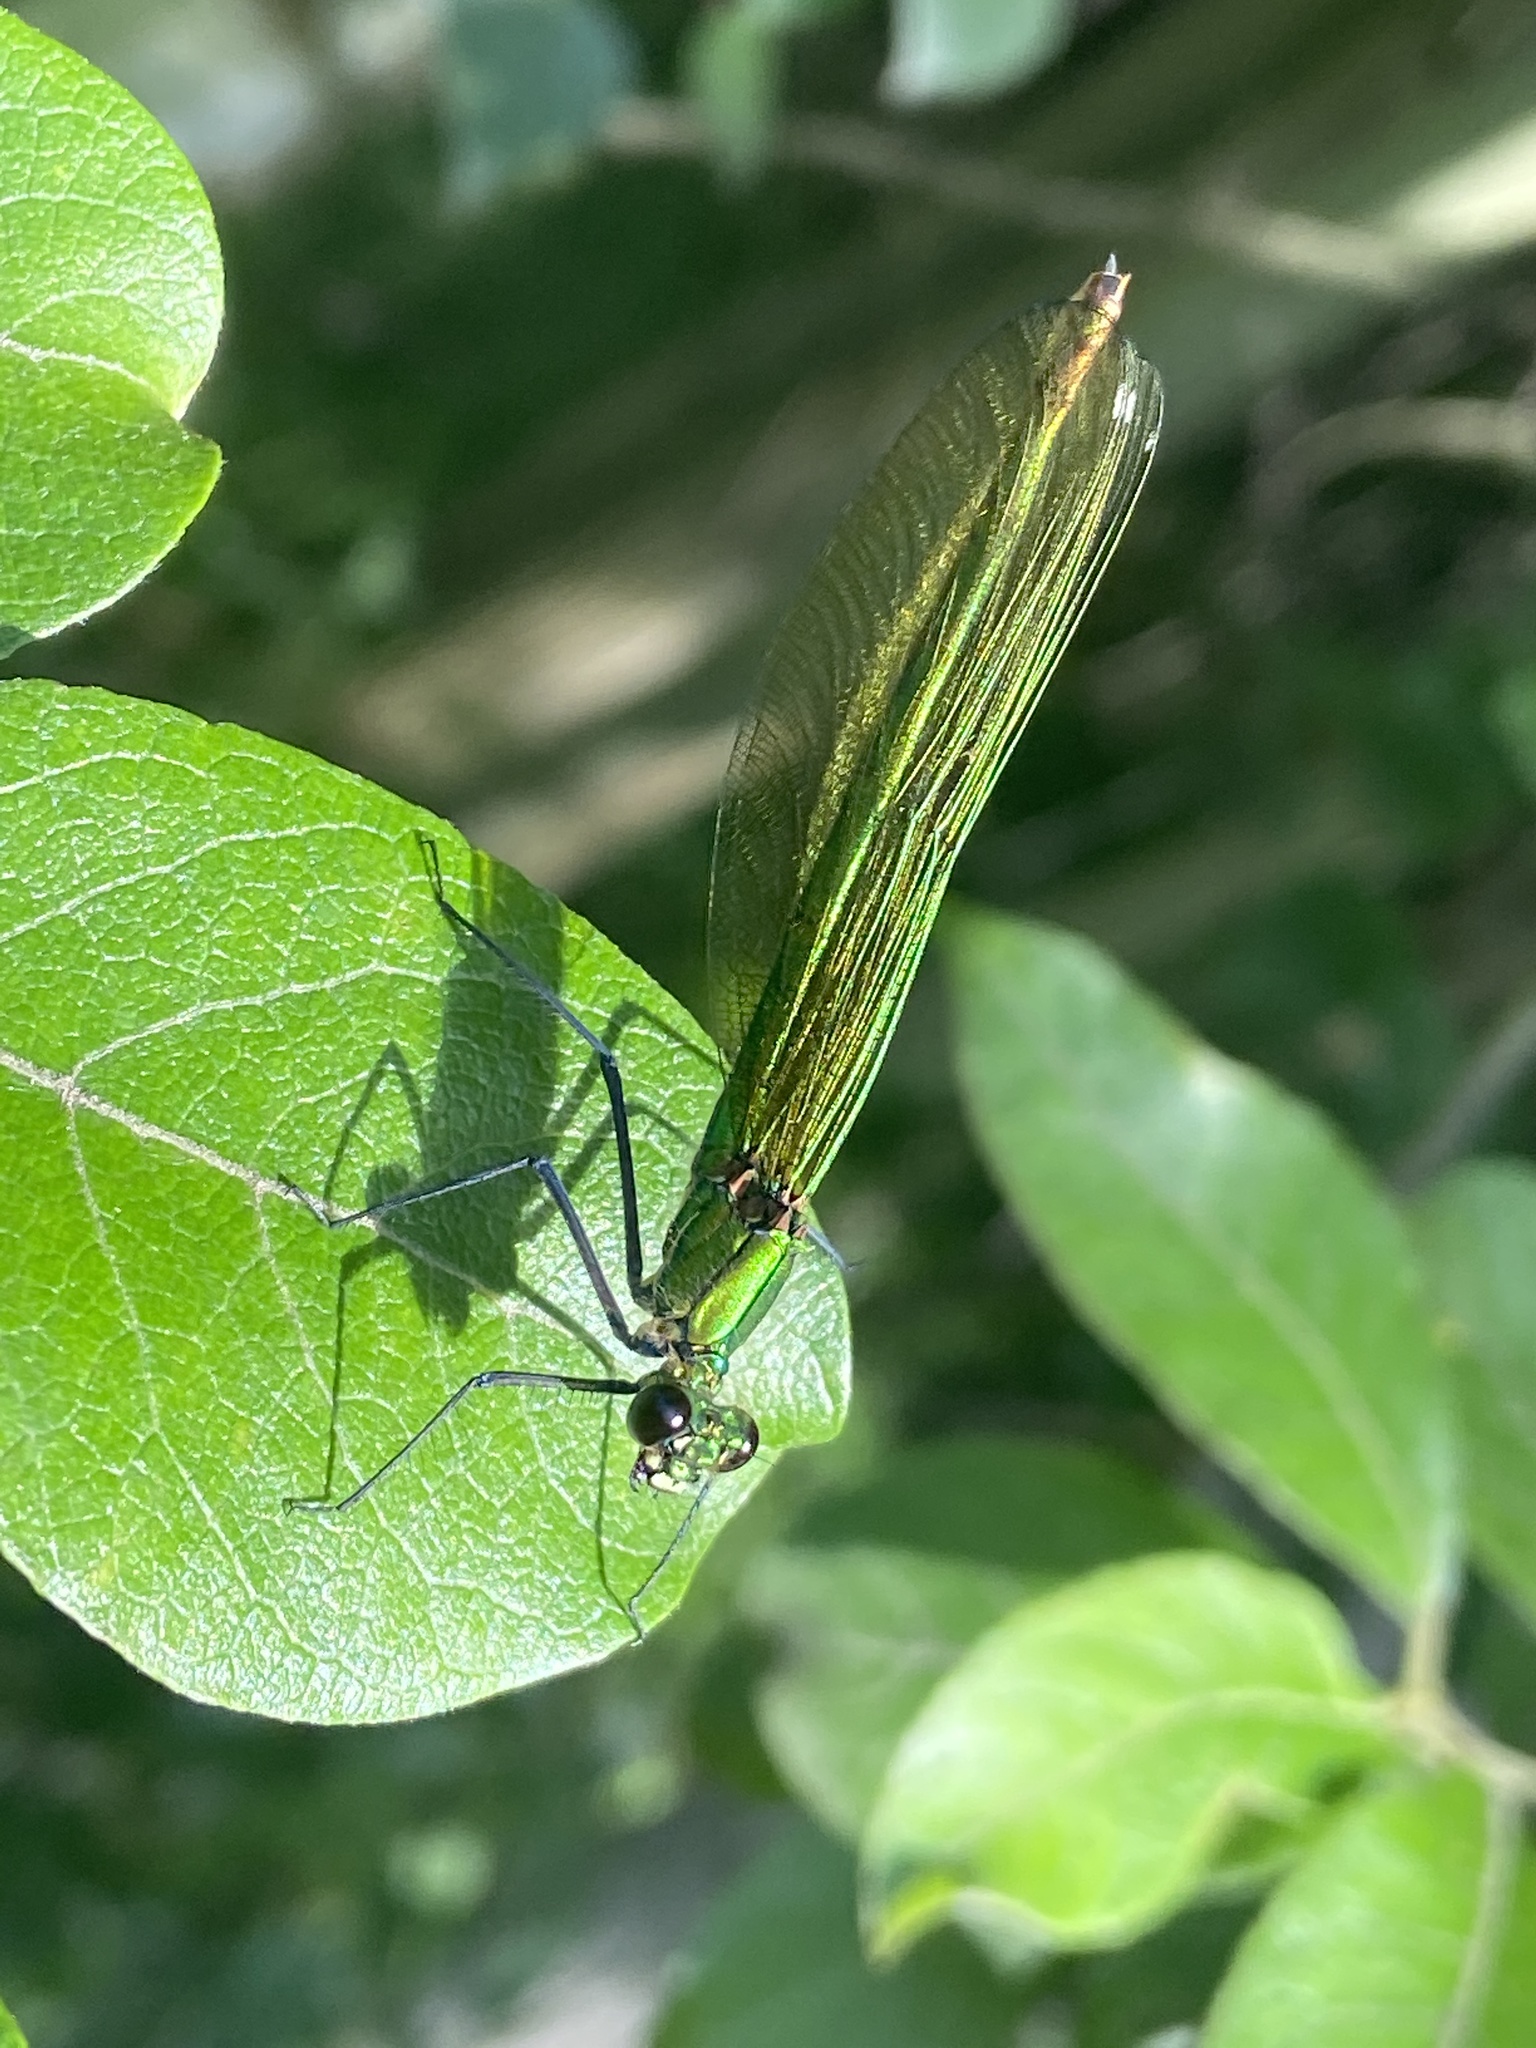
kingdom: Animalia
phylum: Arthropoda
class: Insecta
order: Odonata
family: Calopterygidae
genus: Calopteryx
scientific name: Calopteryx splendens
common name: Banded demoiselle
